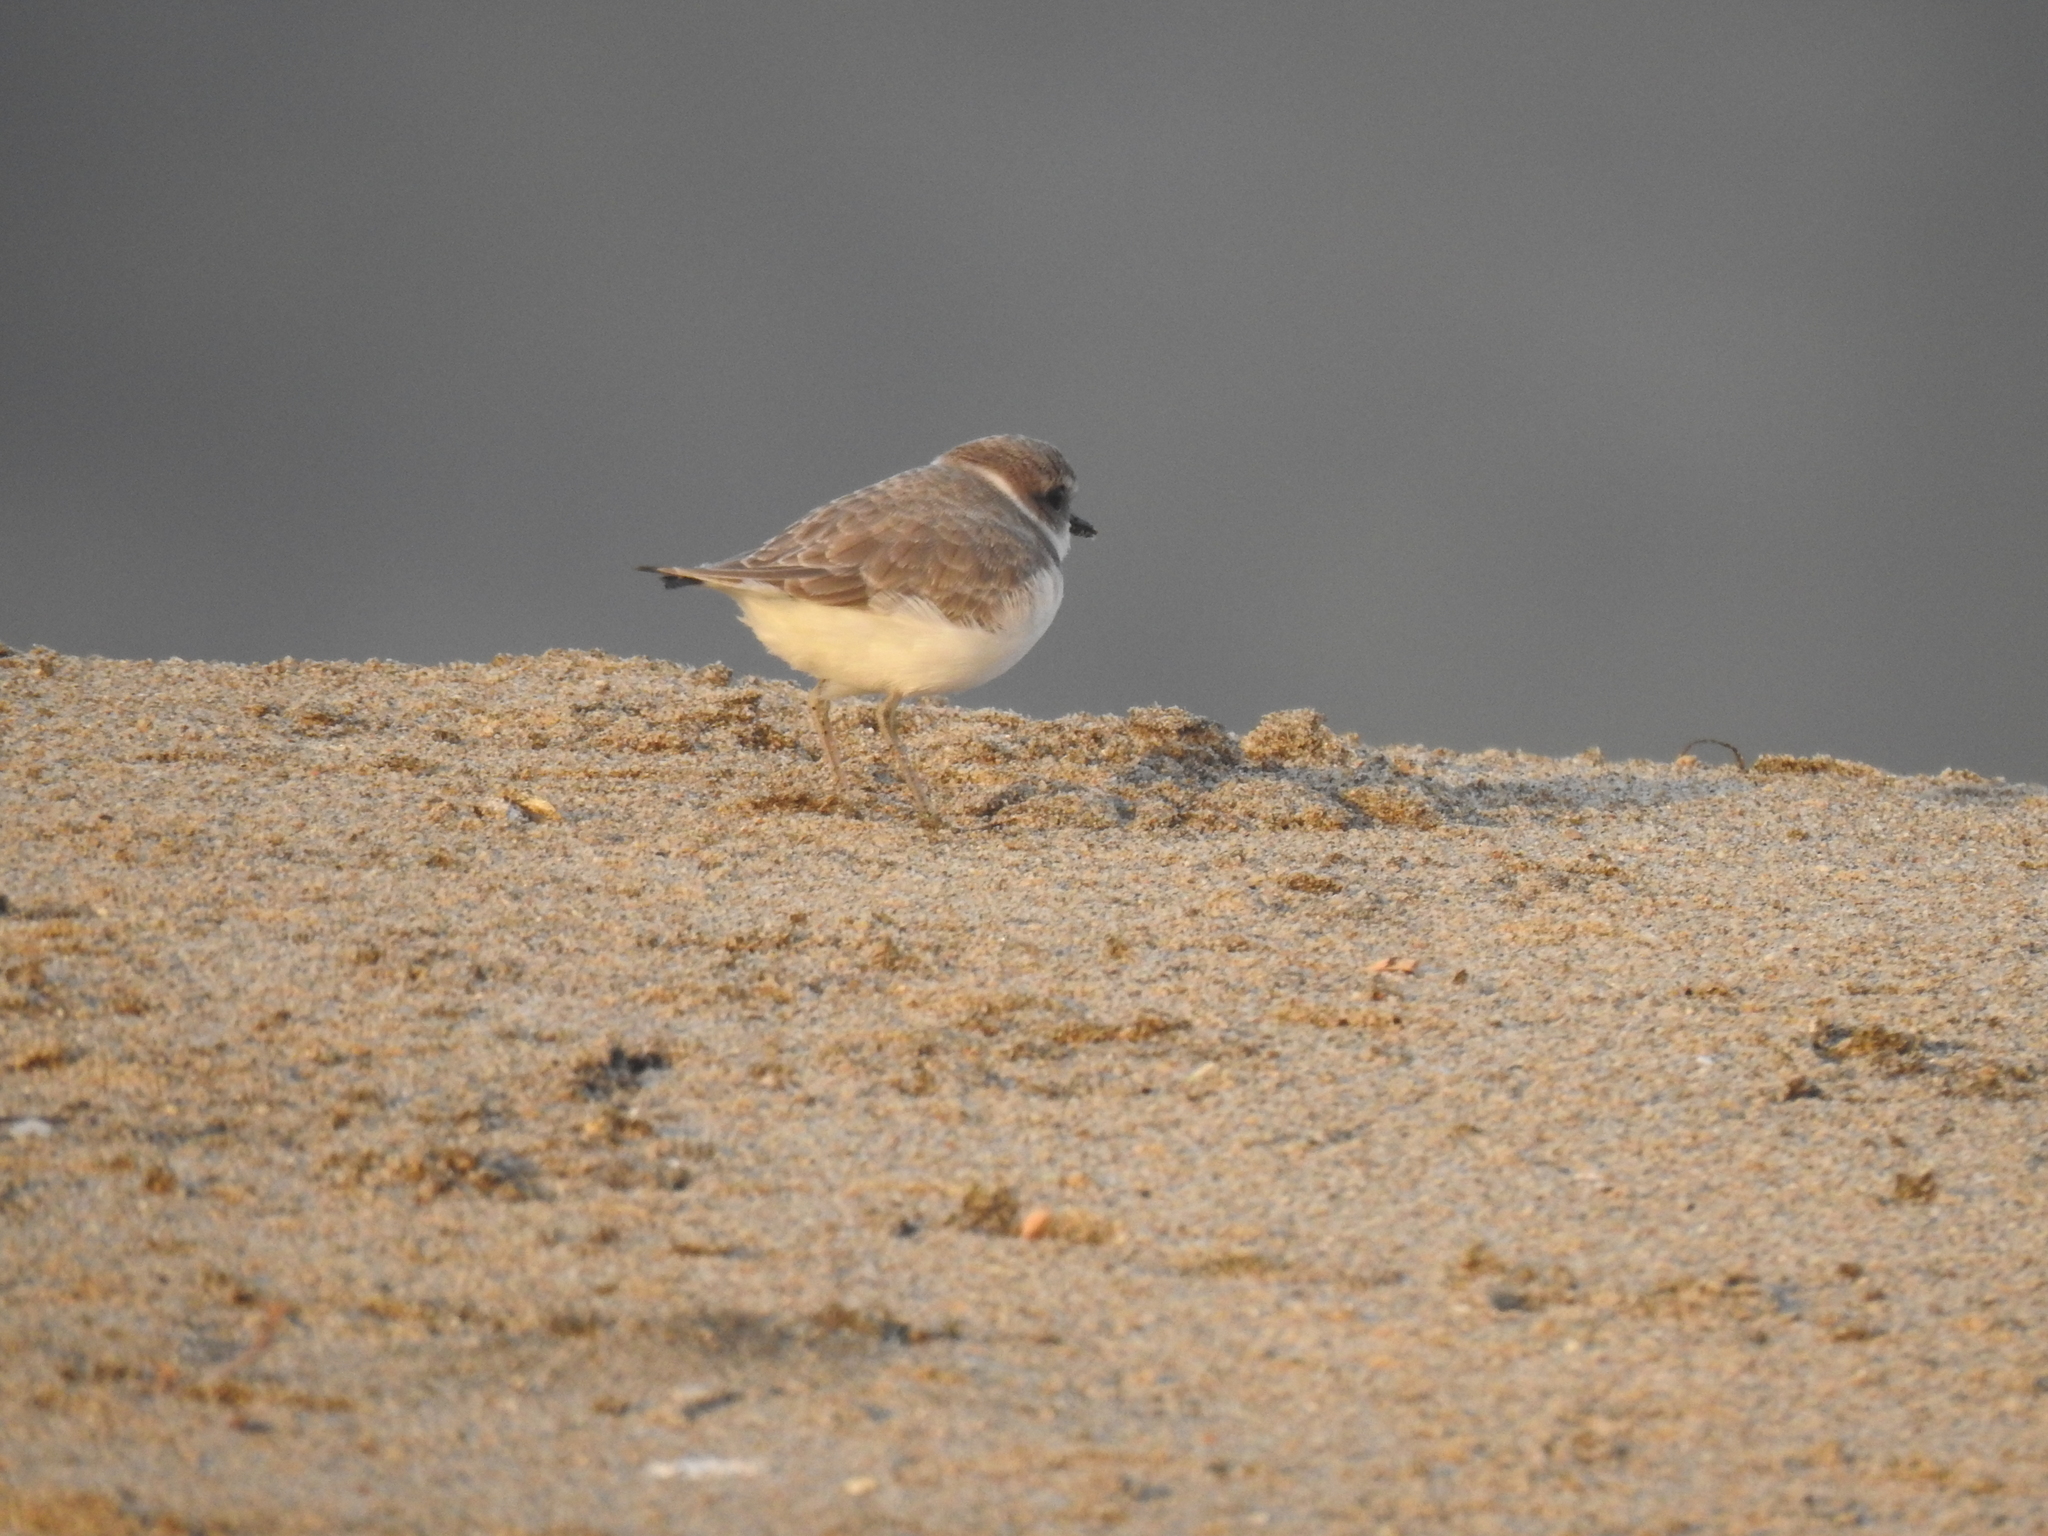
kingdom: Animalia
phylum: Chordata
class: Aves
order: Charadriiformes
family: Charadriidae
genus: Anarhynchus
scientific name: Anarhynchus
